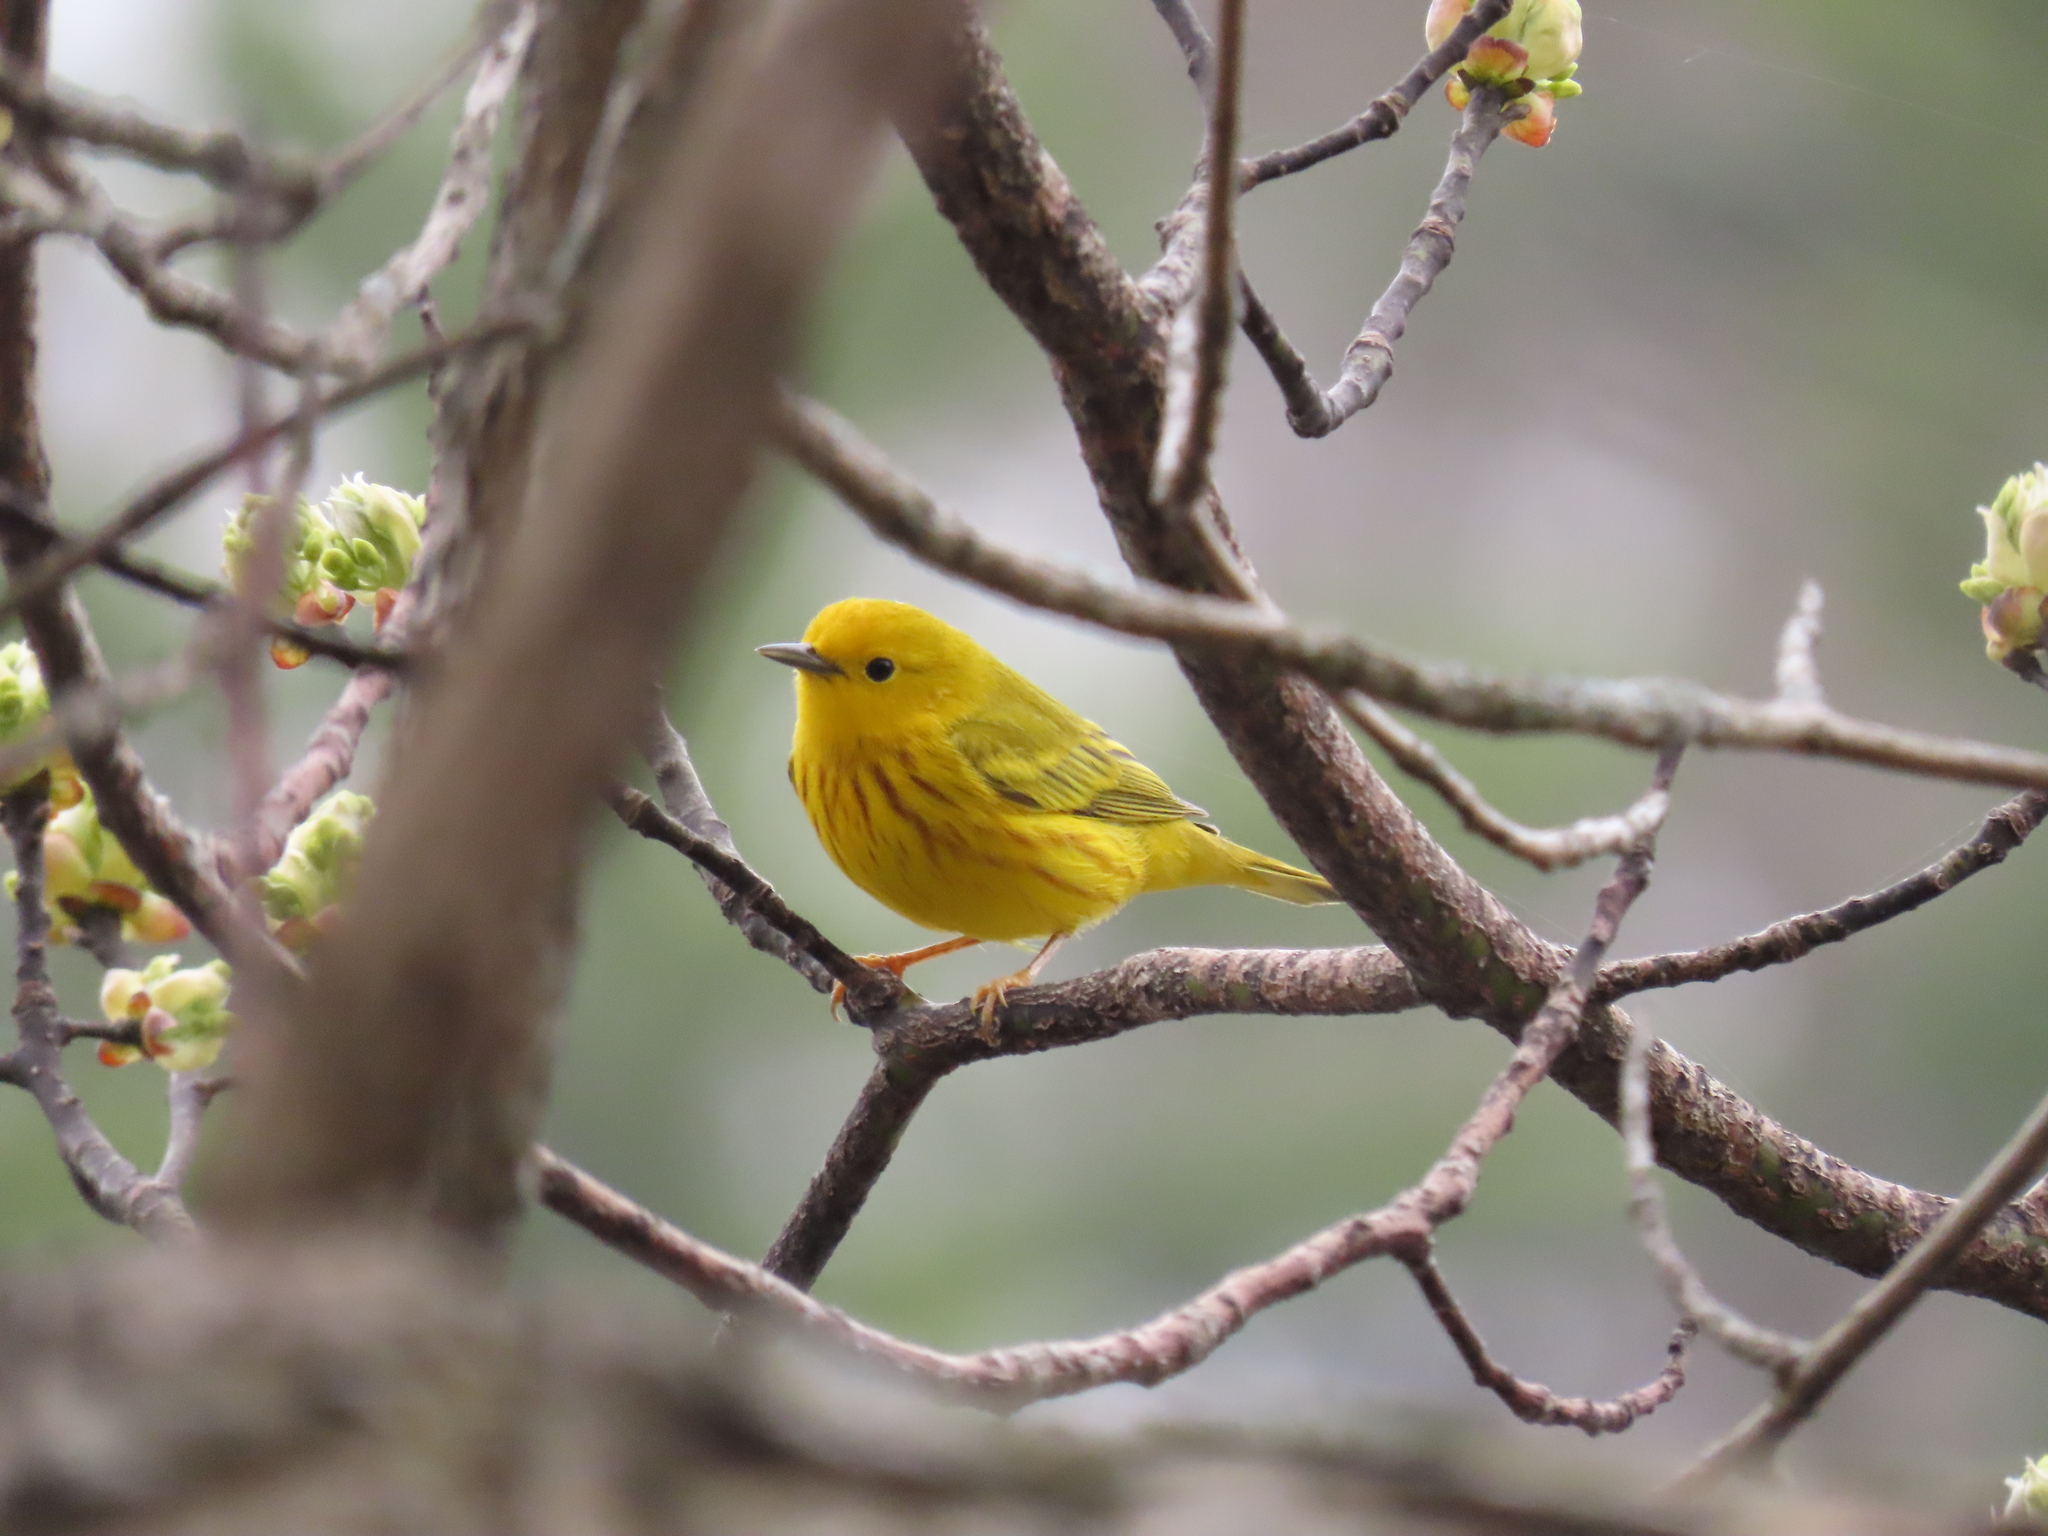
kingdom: Animalia
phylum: Chordata
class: Aves
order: Passeriformes
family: Parulidae
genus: Setophaga
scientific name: Setophaga petechia
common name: Yellow warbler
